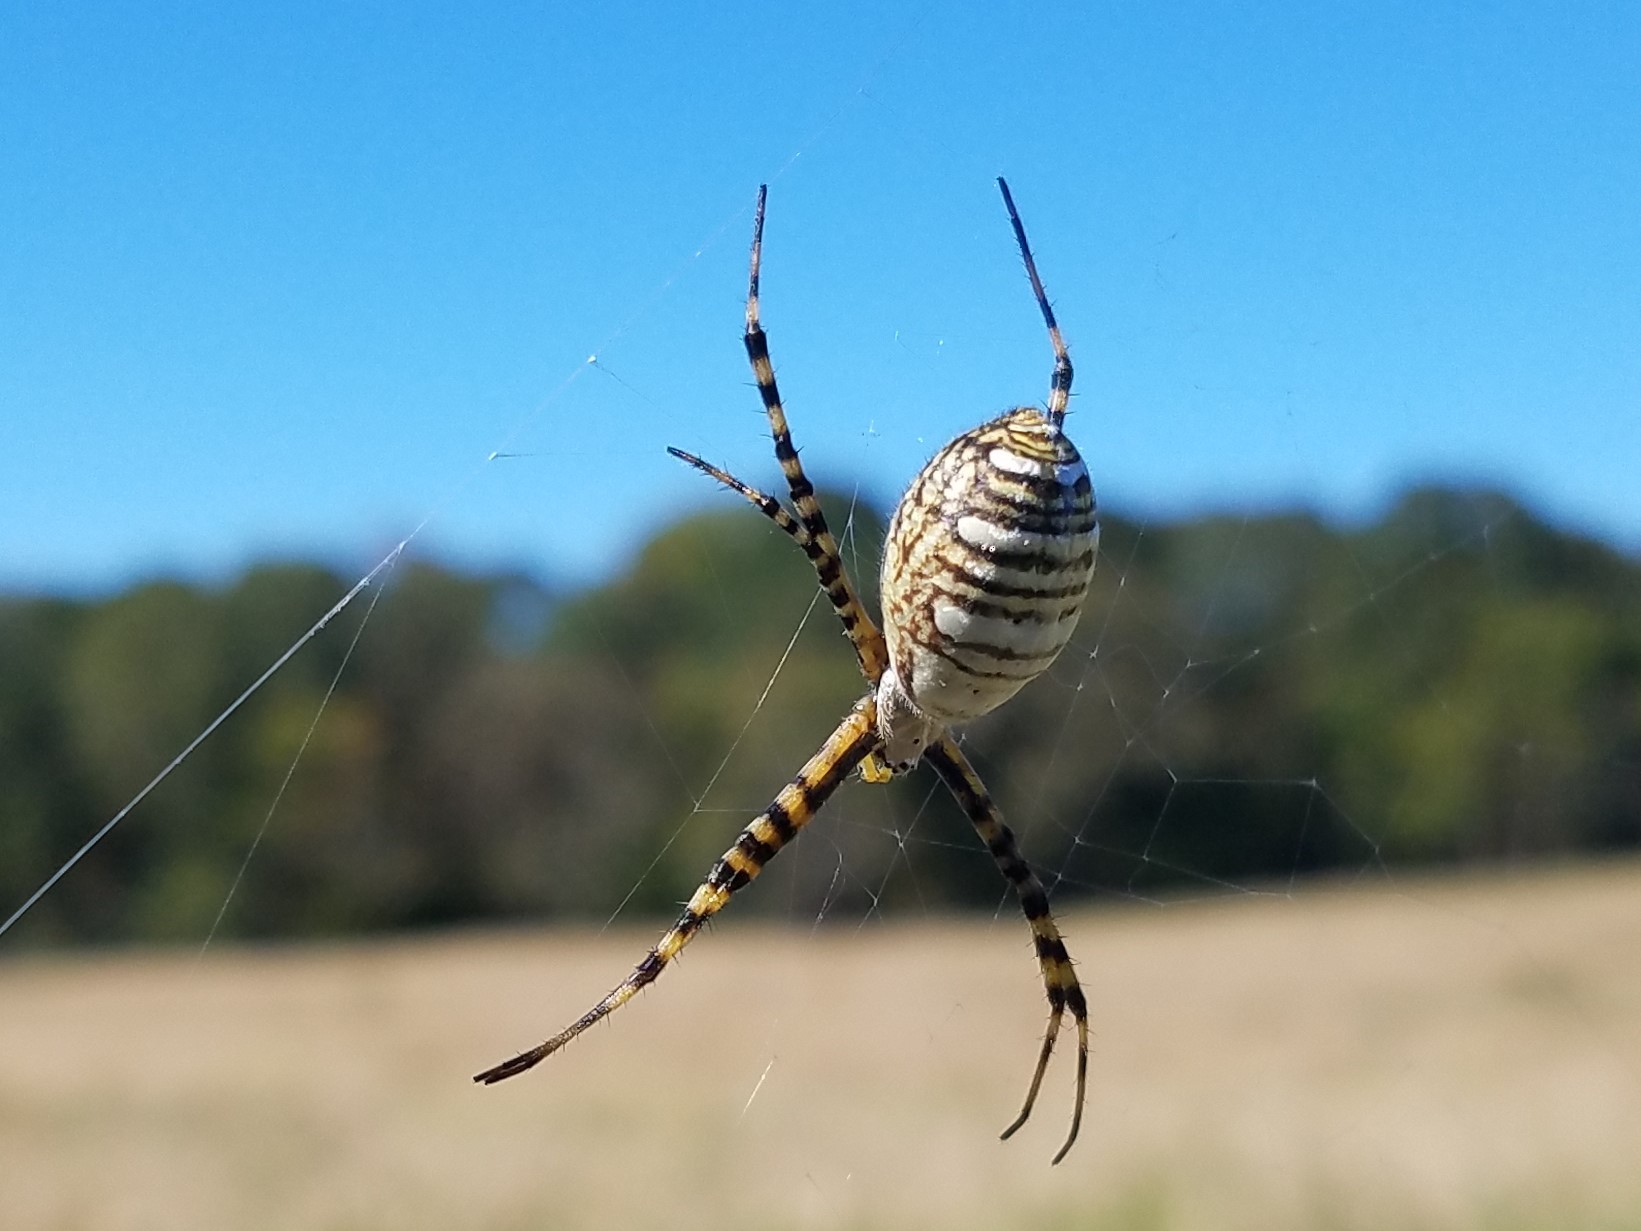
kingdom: Animalia
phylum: Arthropoda
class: Arachnida
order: Araneae
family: Araneidae
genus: Argiope
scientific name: Argiope trifasciata
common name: Banded garden spider
